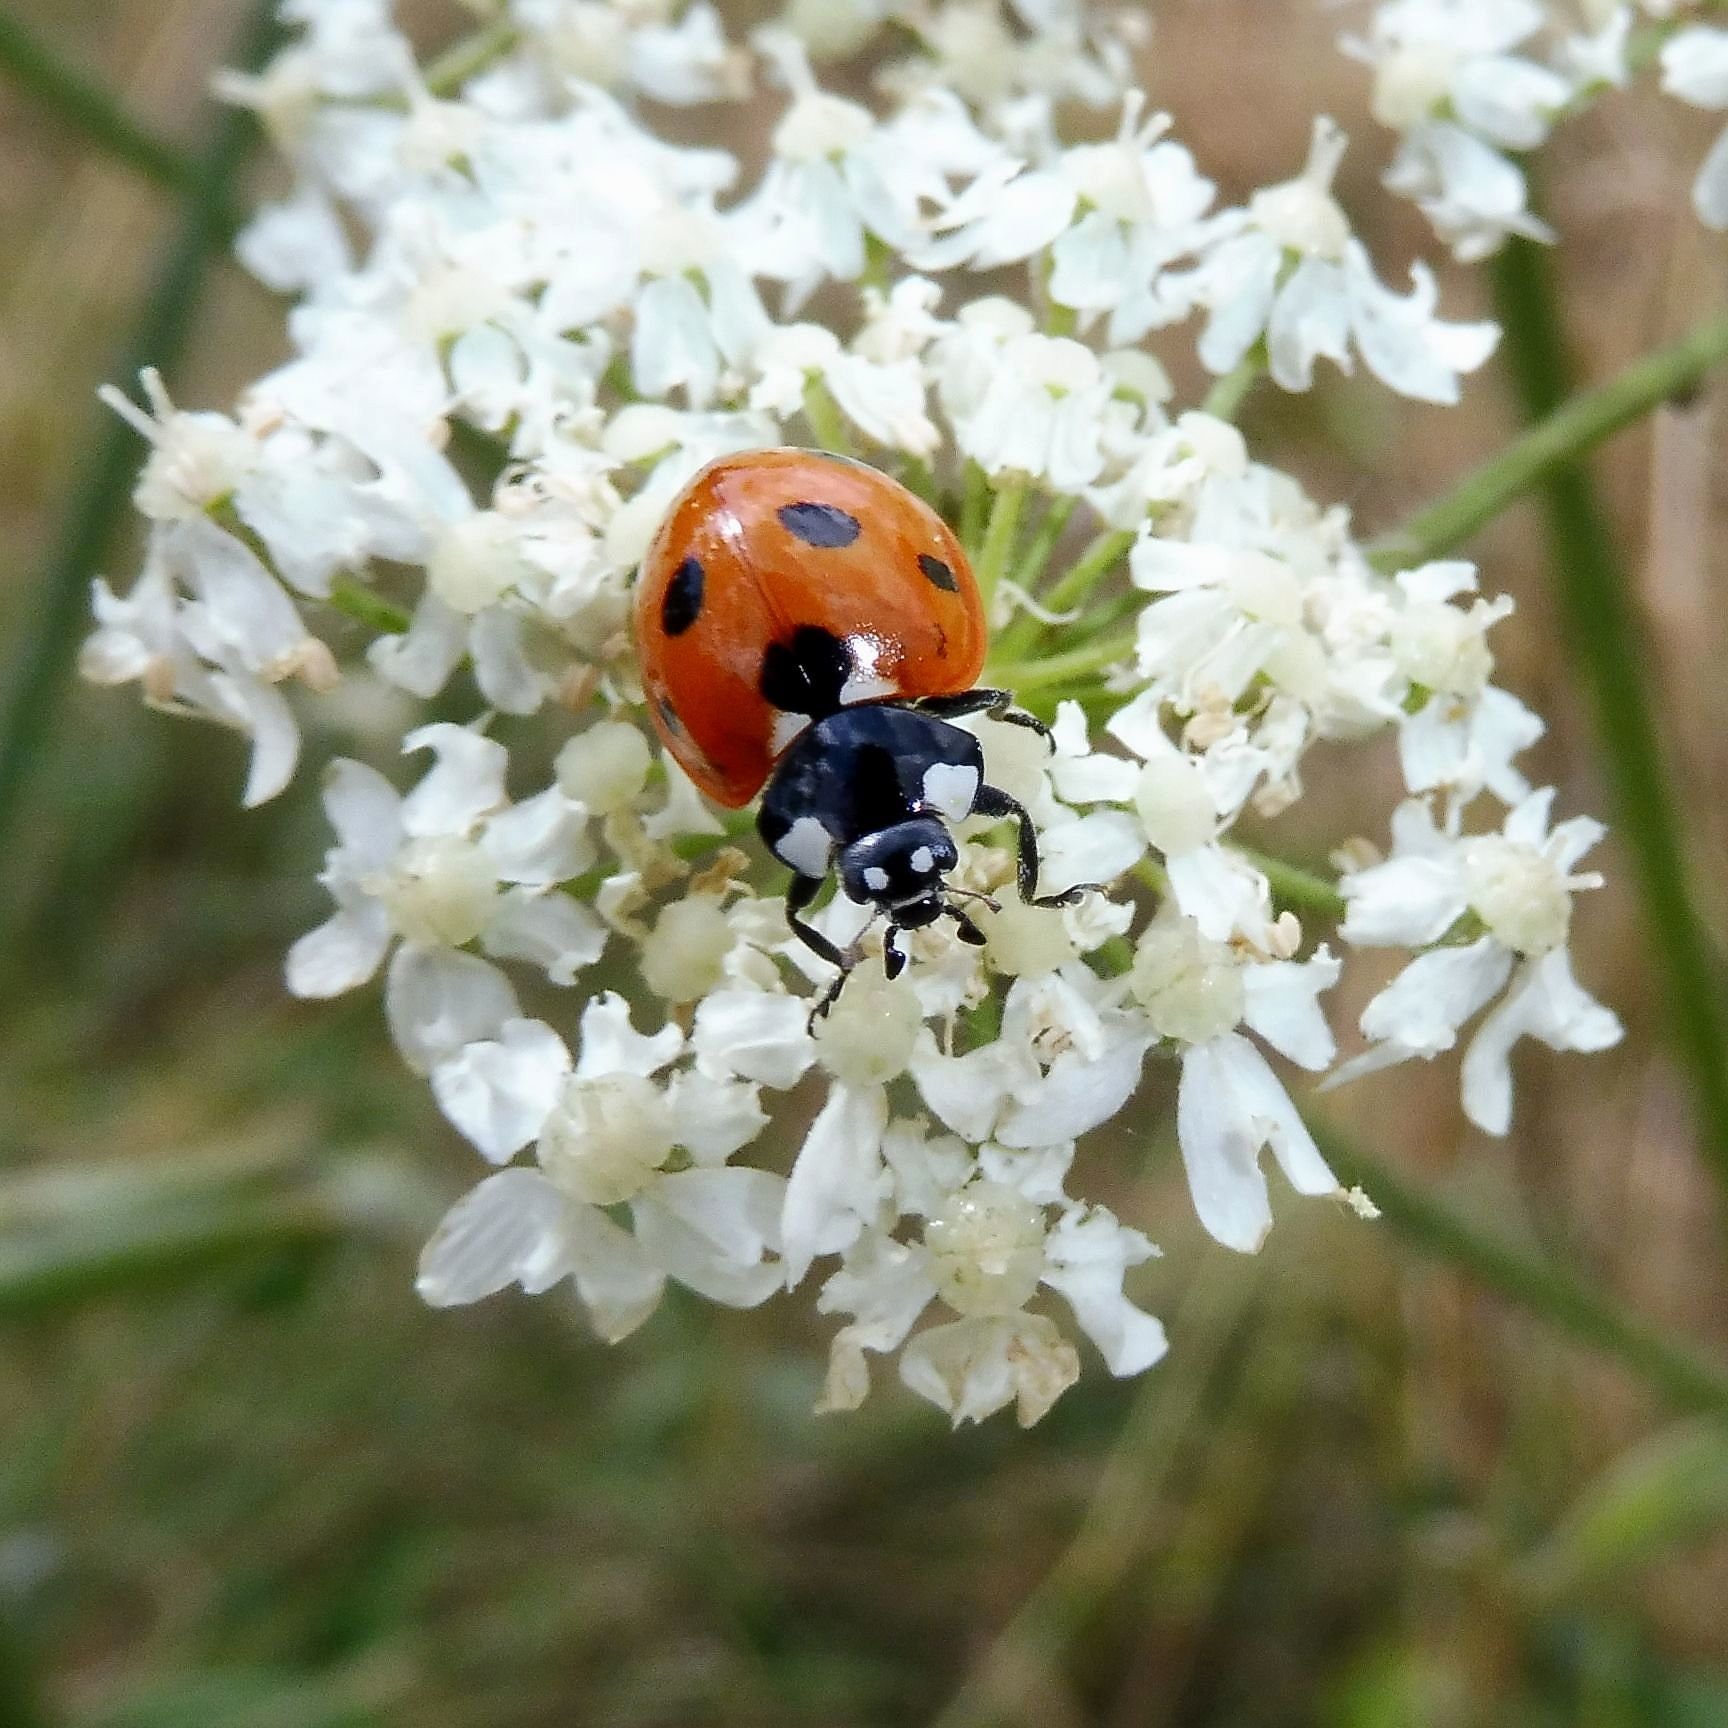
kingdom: Animalia
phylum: Arthropoda
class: Insecta
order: Coleoptera
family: Coccinellidae
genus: Coccinella
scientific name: Coccinella septempunctata
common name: Sevenspotted lady beetle
